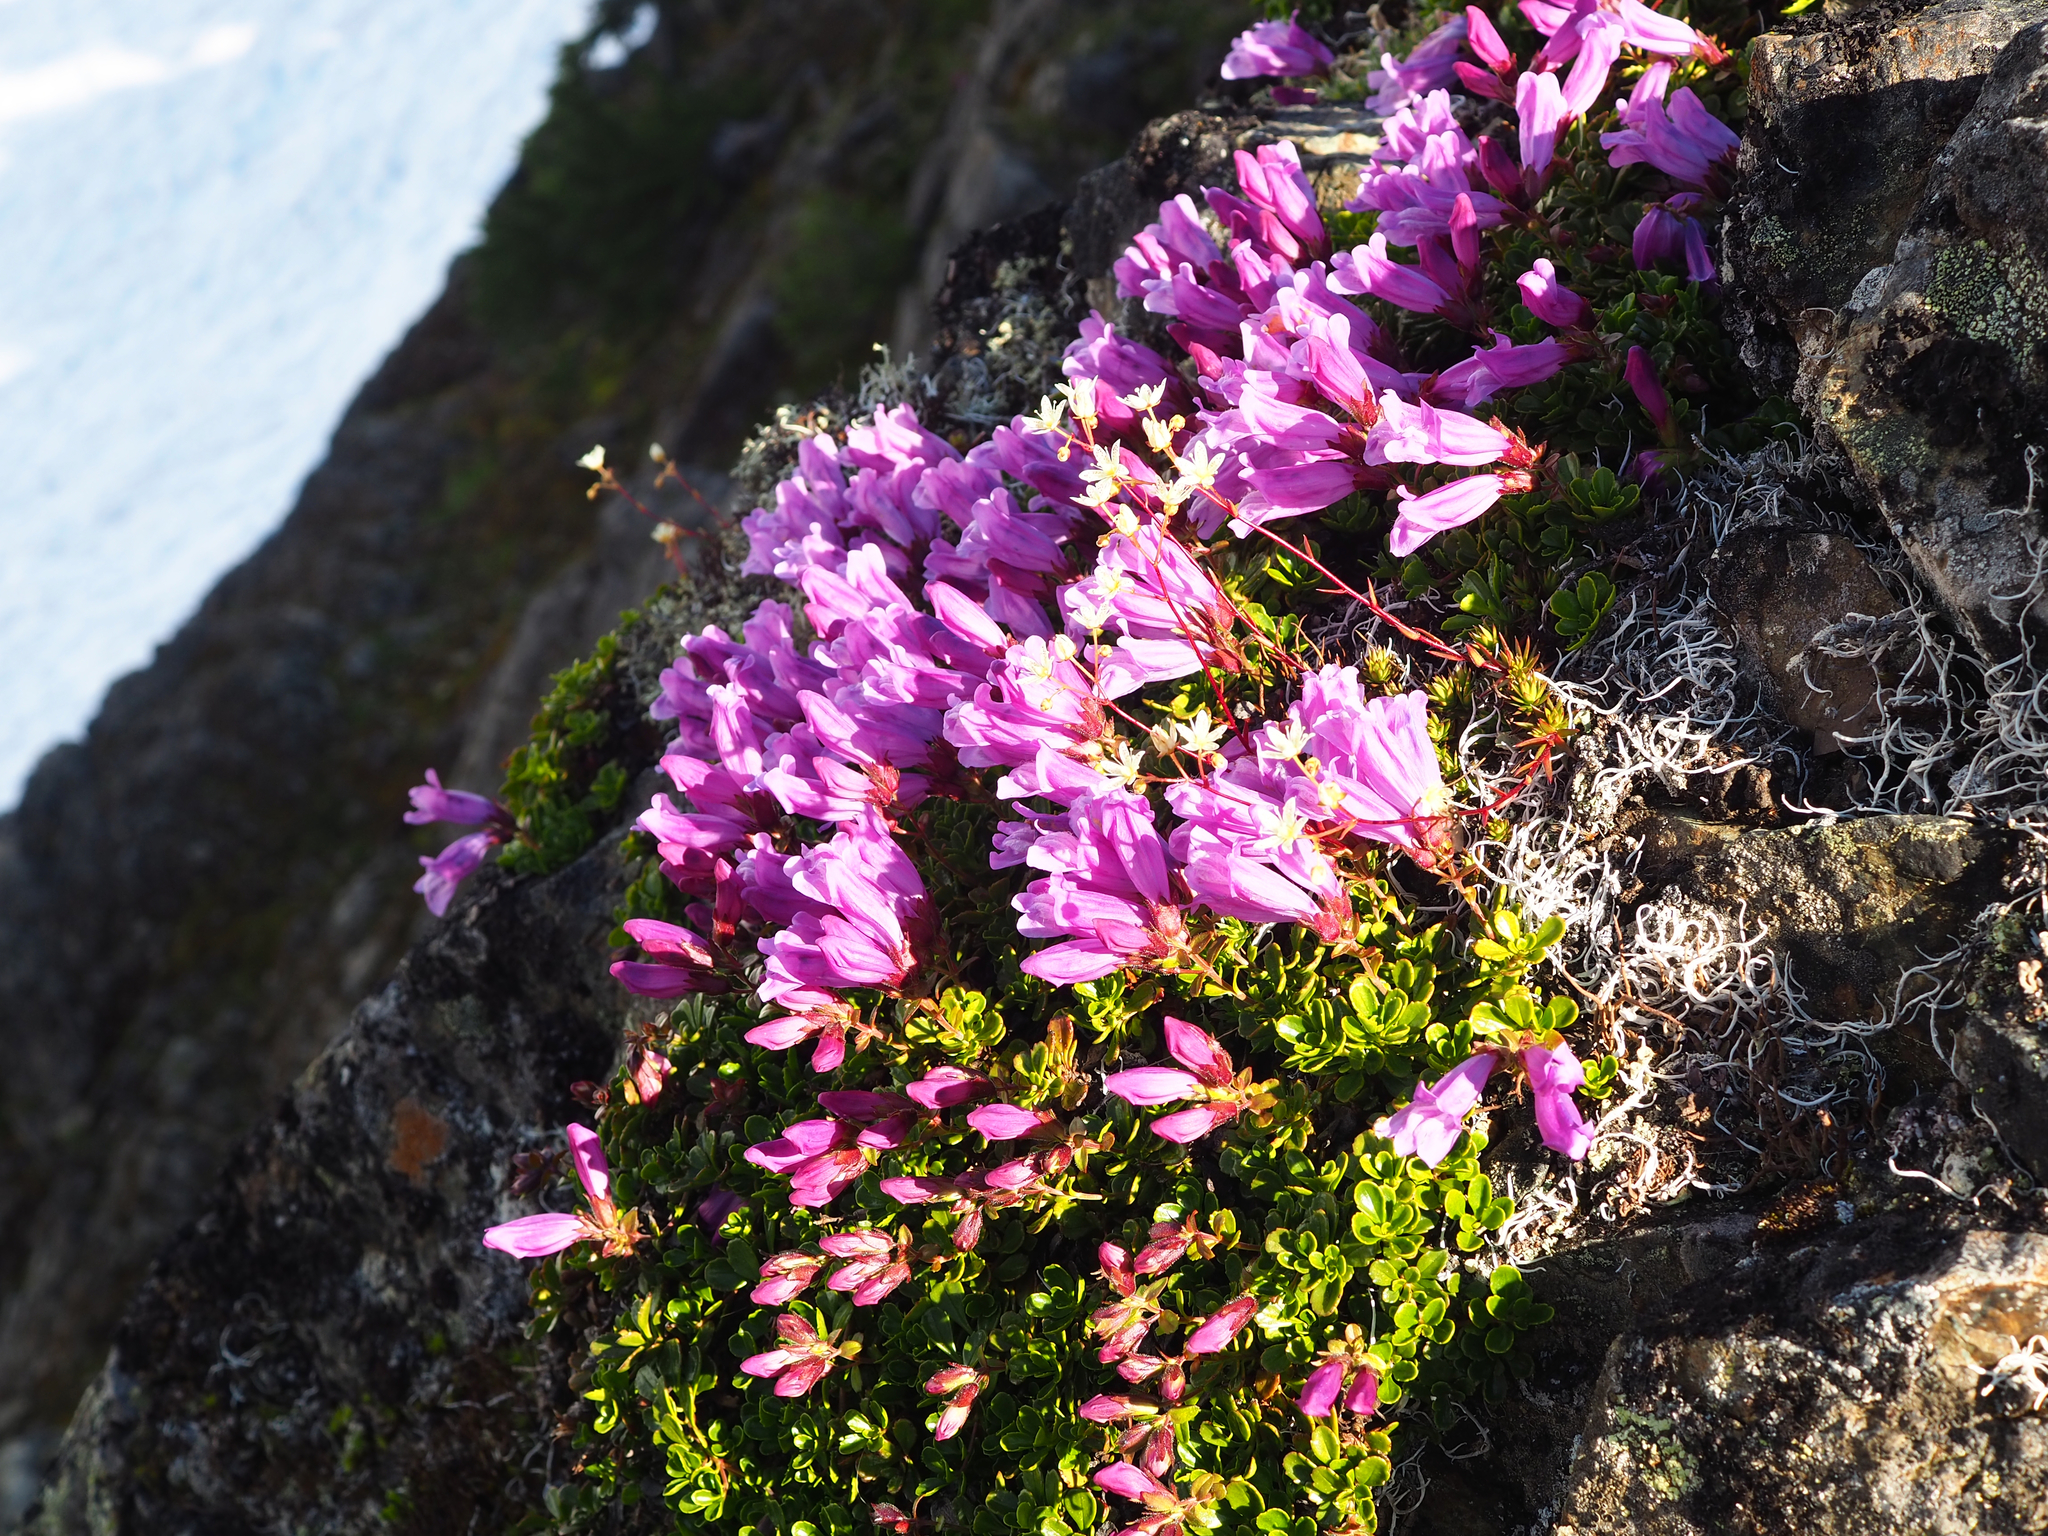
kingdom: Plantae
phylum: Tracheophyta
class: Magnoliopsida
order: Lamiales
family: Plantaginaceae
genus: Penstemon
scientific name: Penstemon davidsonii
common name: Davidson's penstemon
